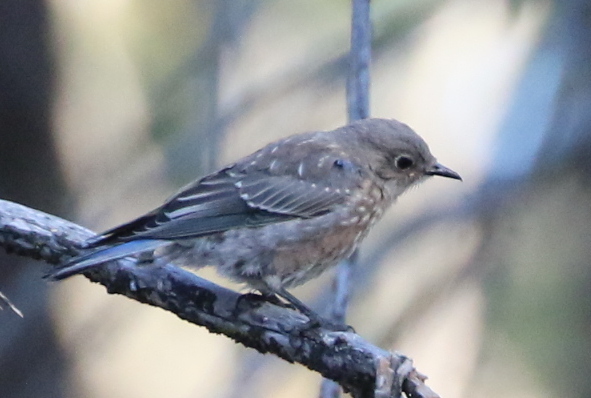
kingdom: Animalia
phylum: Chordata
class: Aves
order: Passeriformes
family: Turdidae
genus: Sialia
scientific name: Sialia mexicana
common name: Western bluebird
